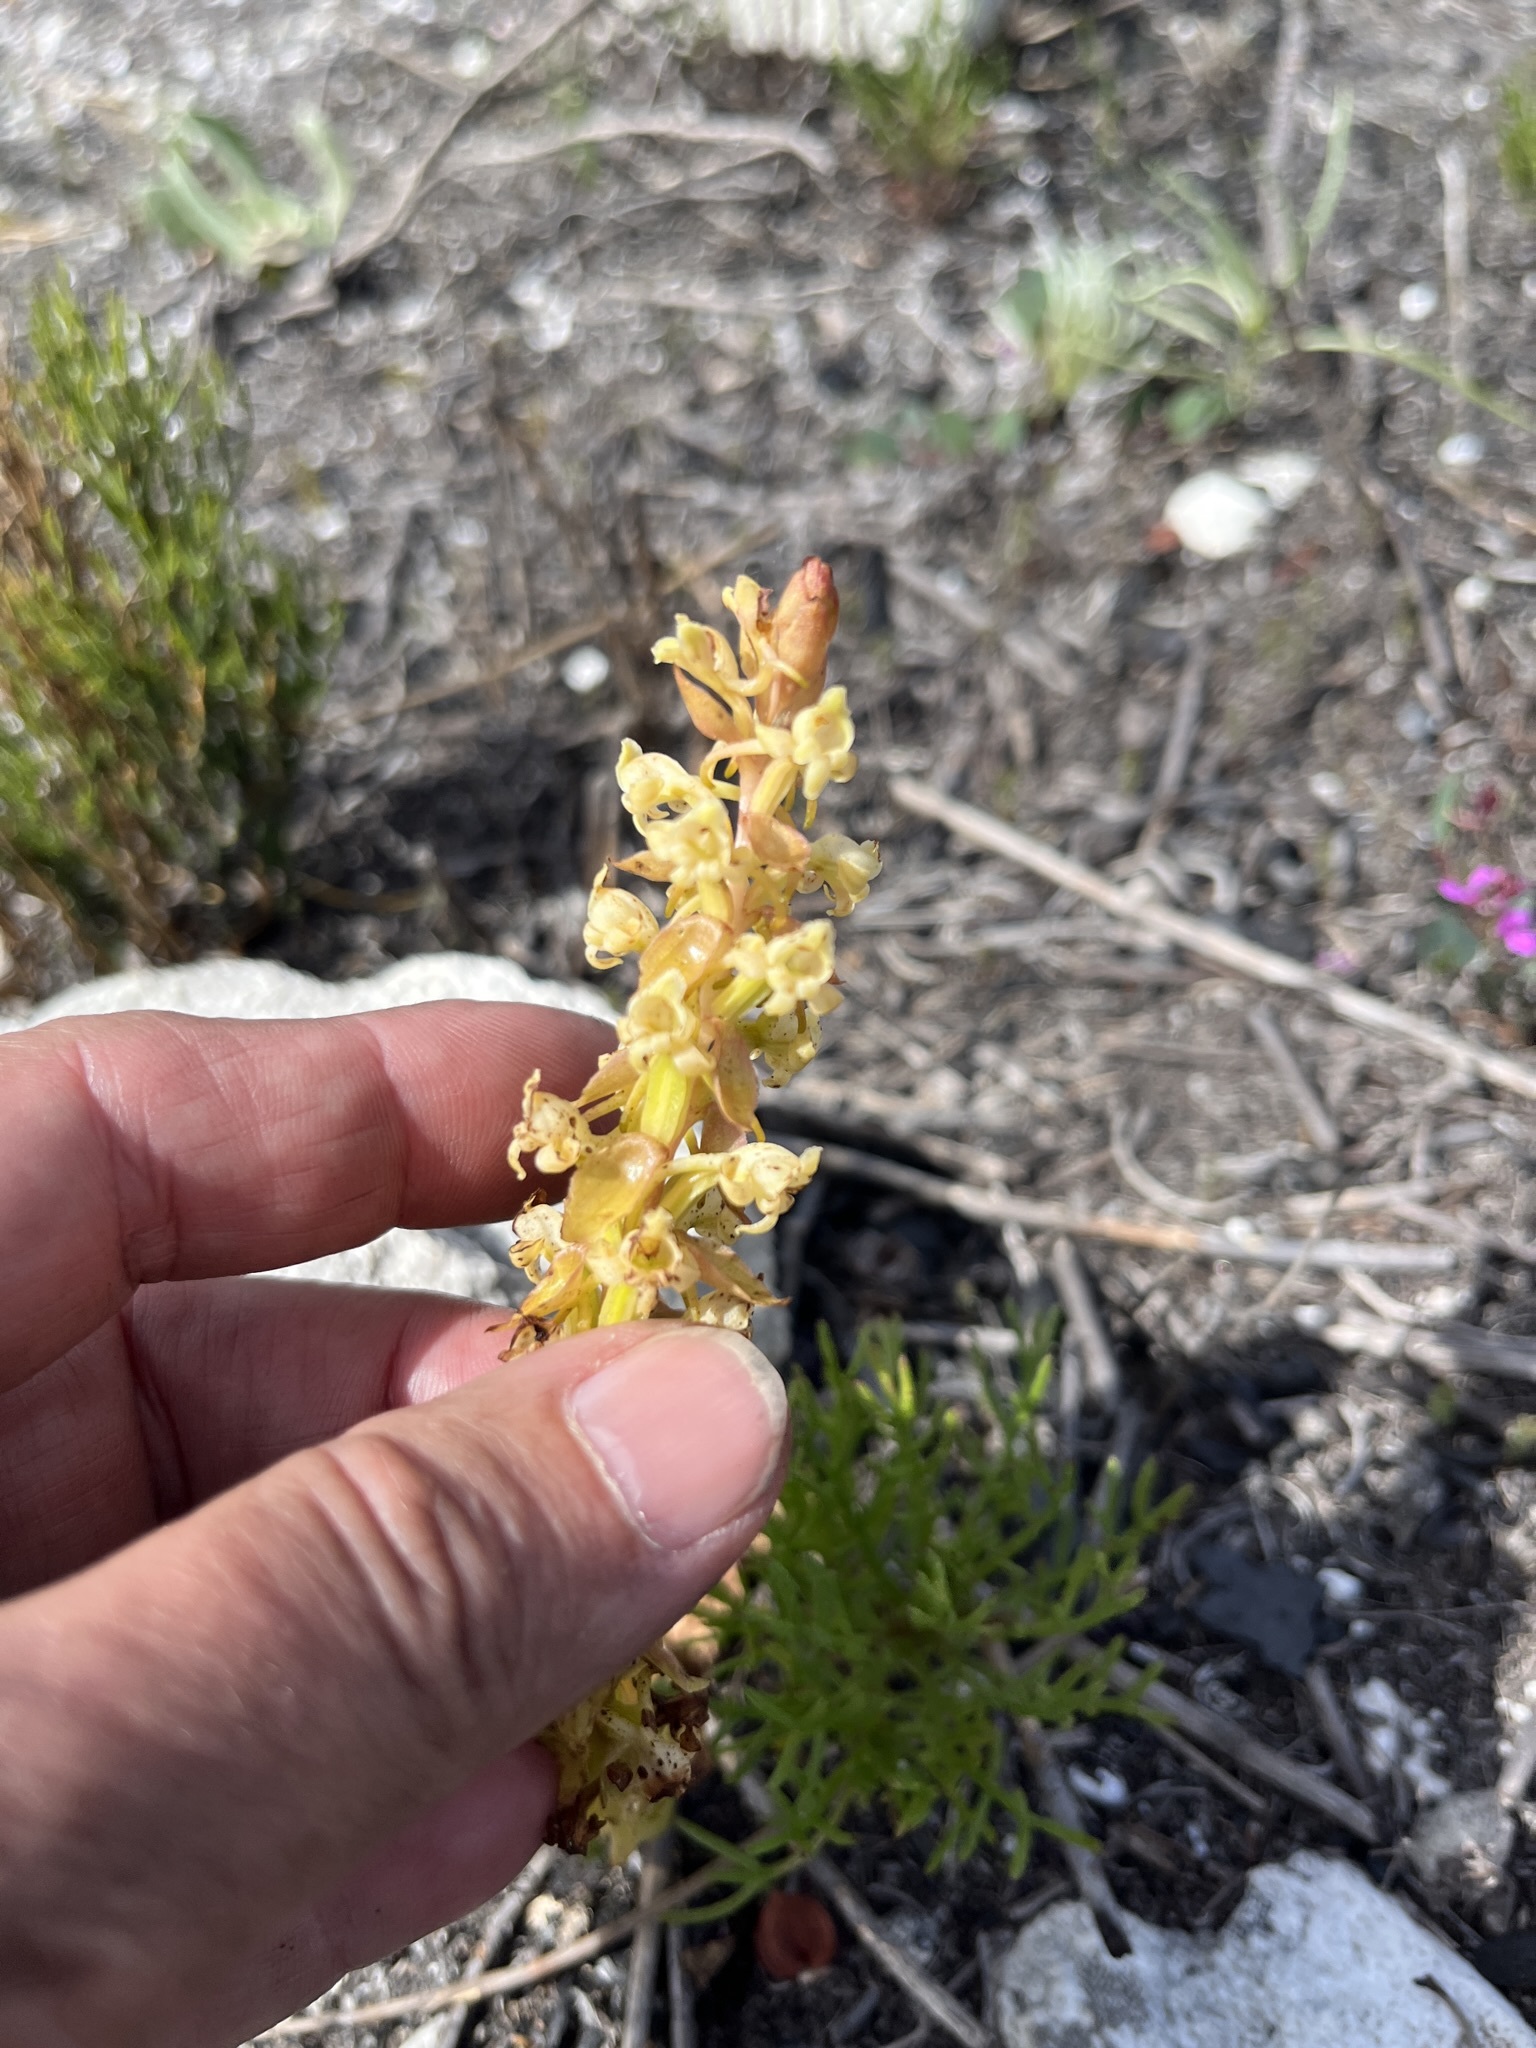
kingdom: Plantae
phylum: Tracheophyta
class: Liliopsida
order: Asparagales
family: Orchidaceae
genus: Satyrium
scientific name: Satyrium humile
